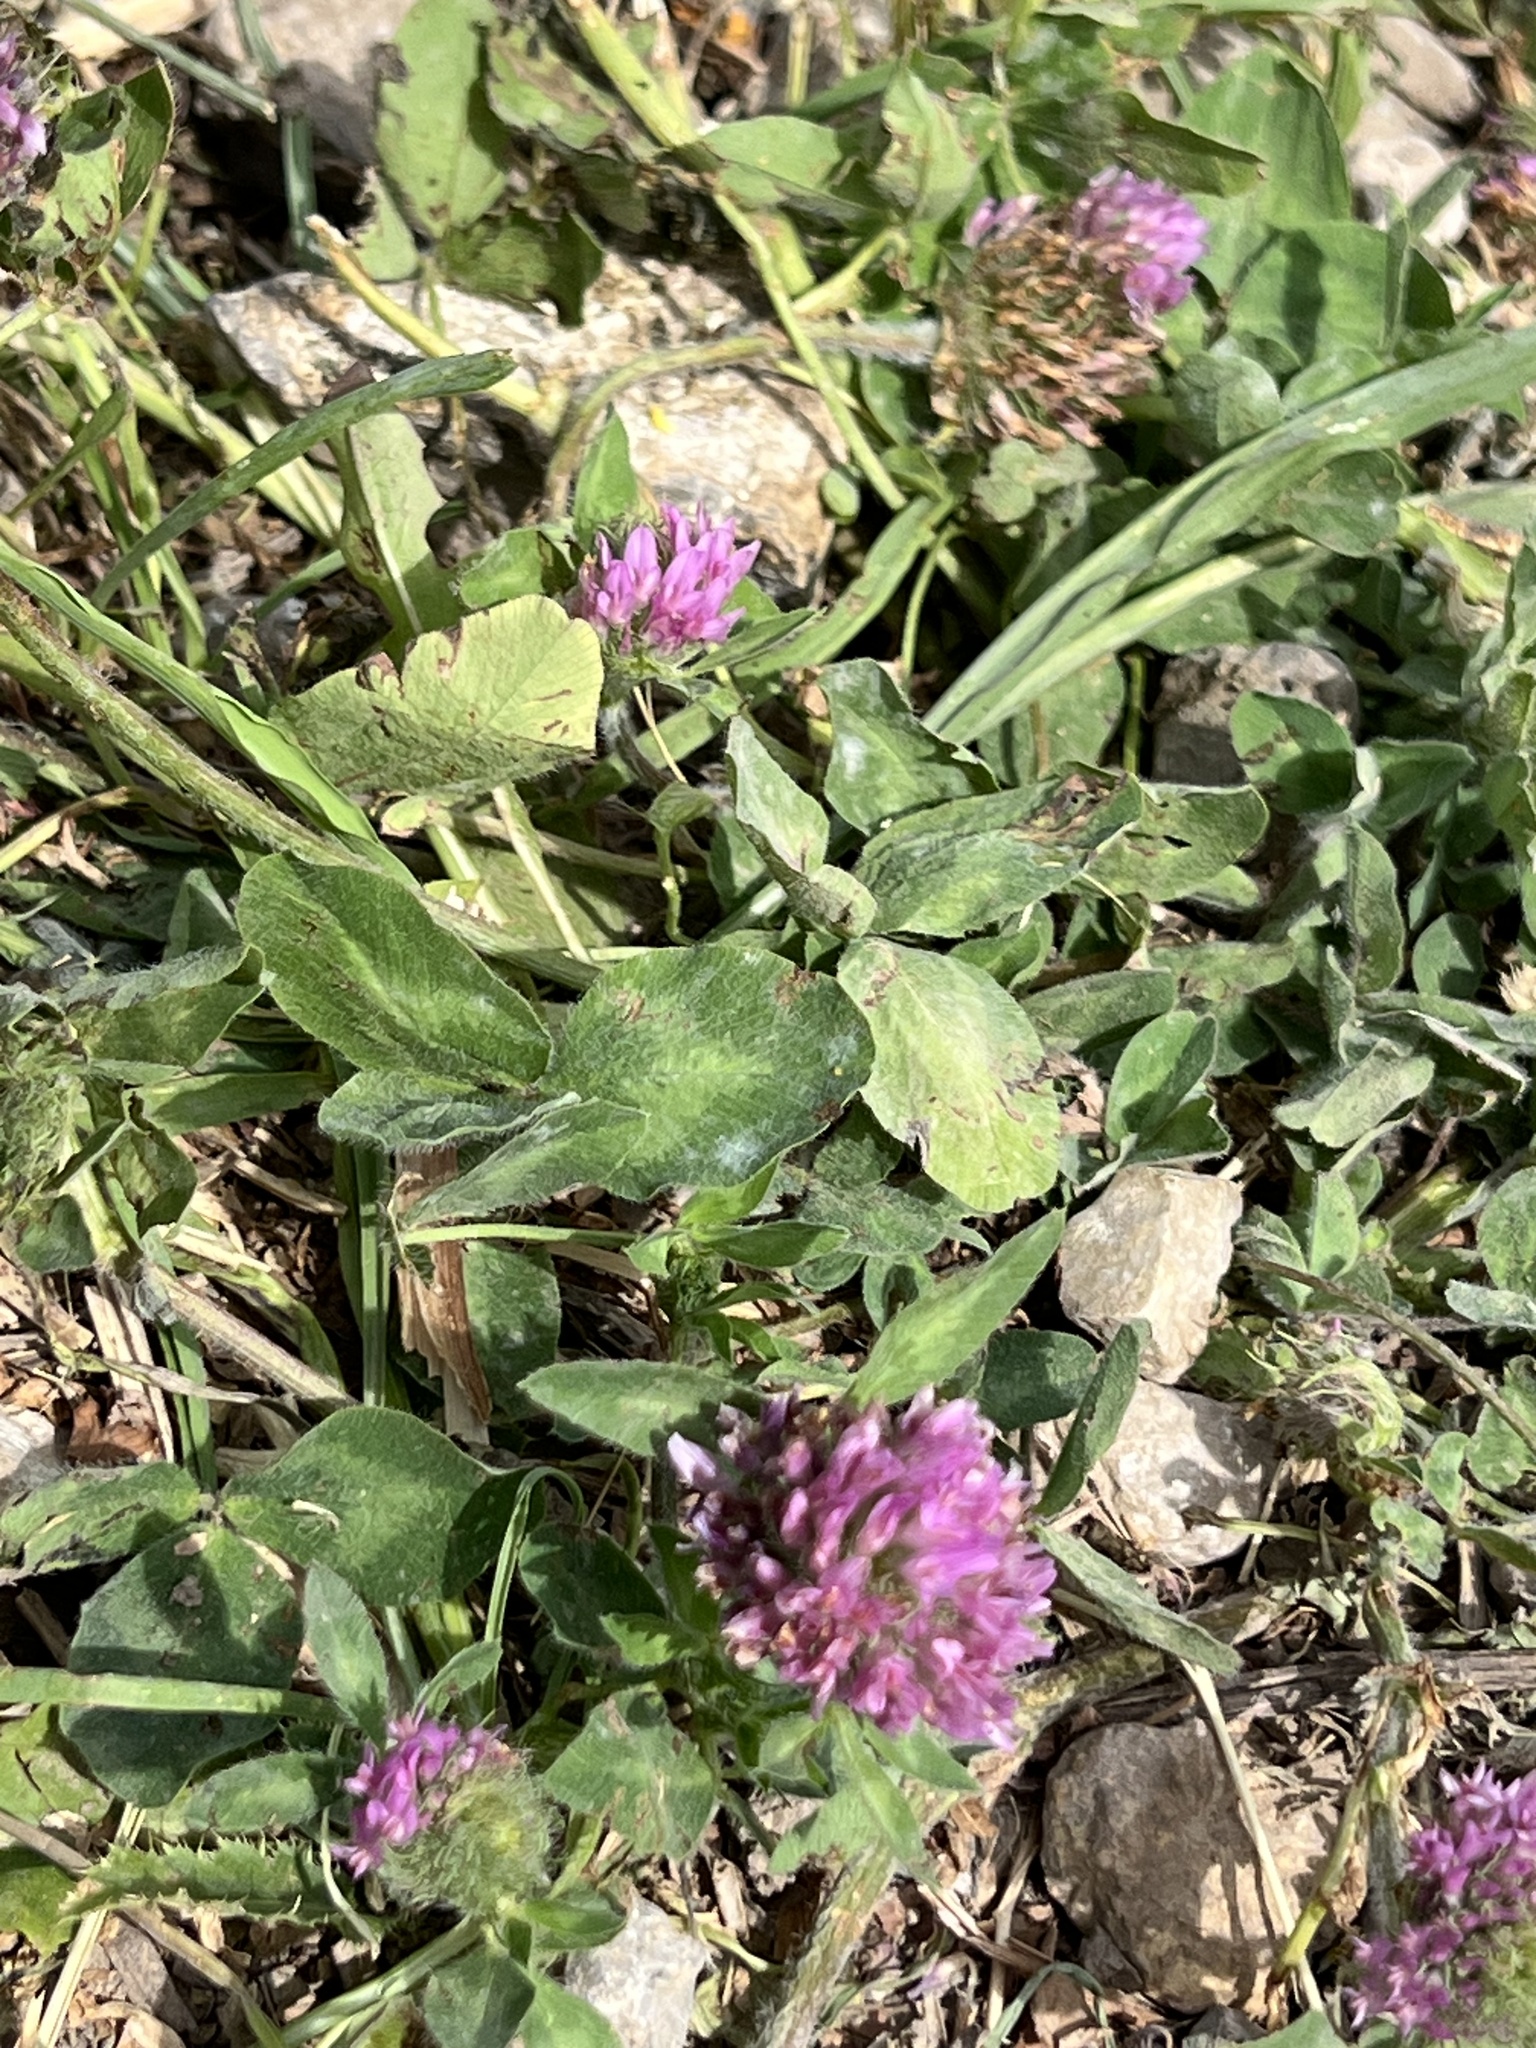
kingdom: Plantae
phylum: Tracheophyta
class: Magnoliopsida
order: Fabales
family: Fabaceae
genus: Trifolium
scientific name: Trifolium pratense
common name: Red clover
